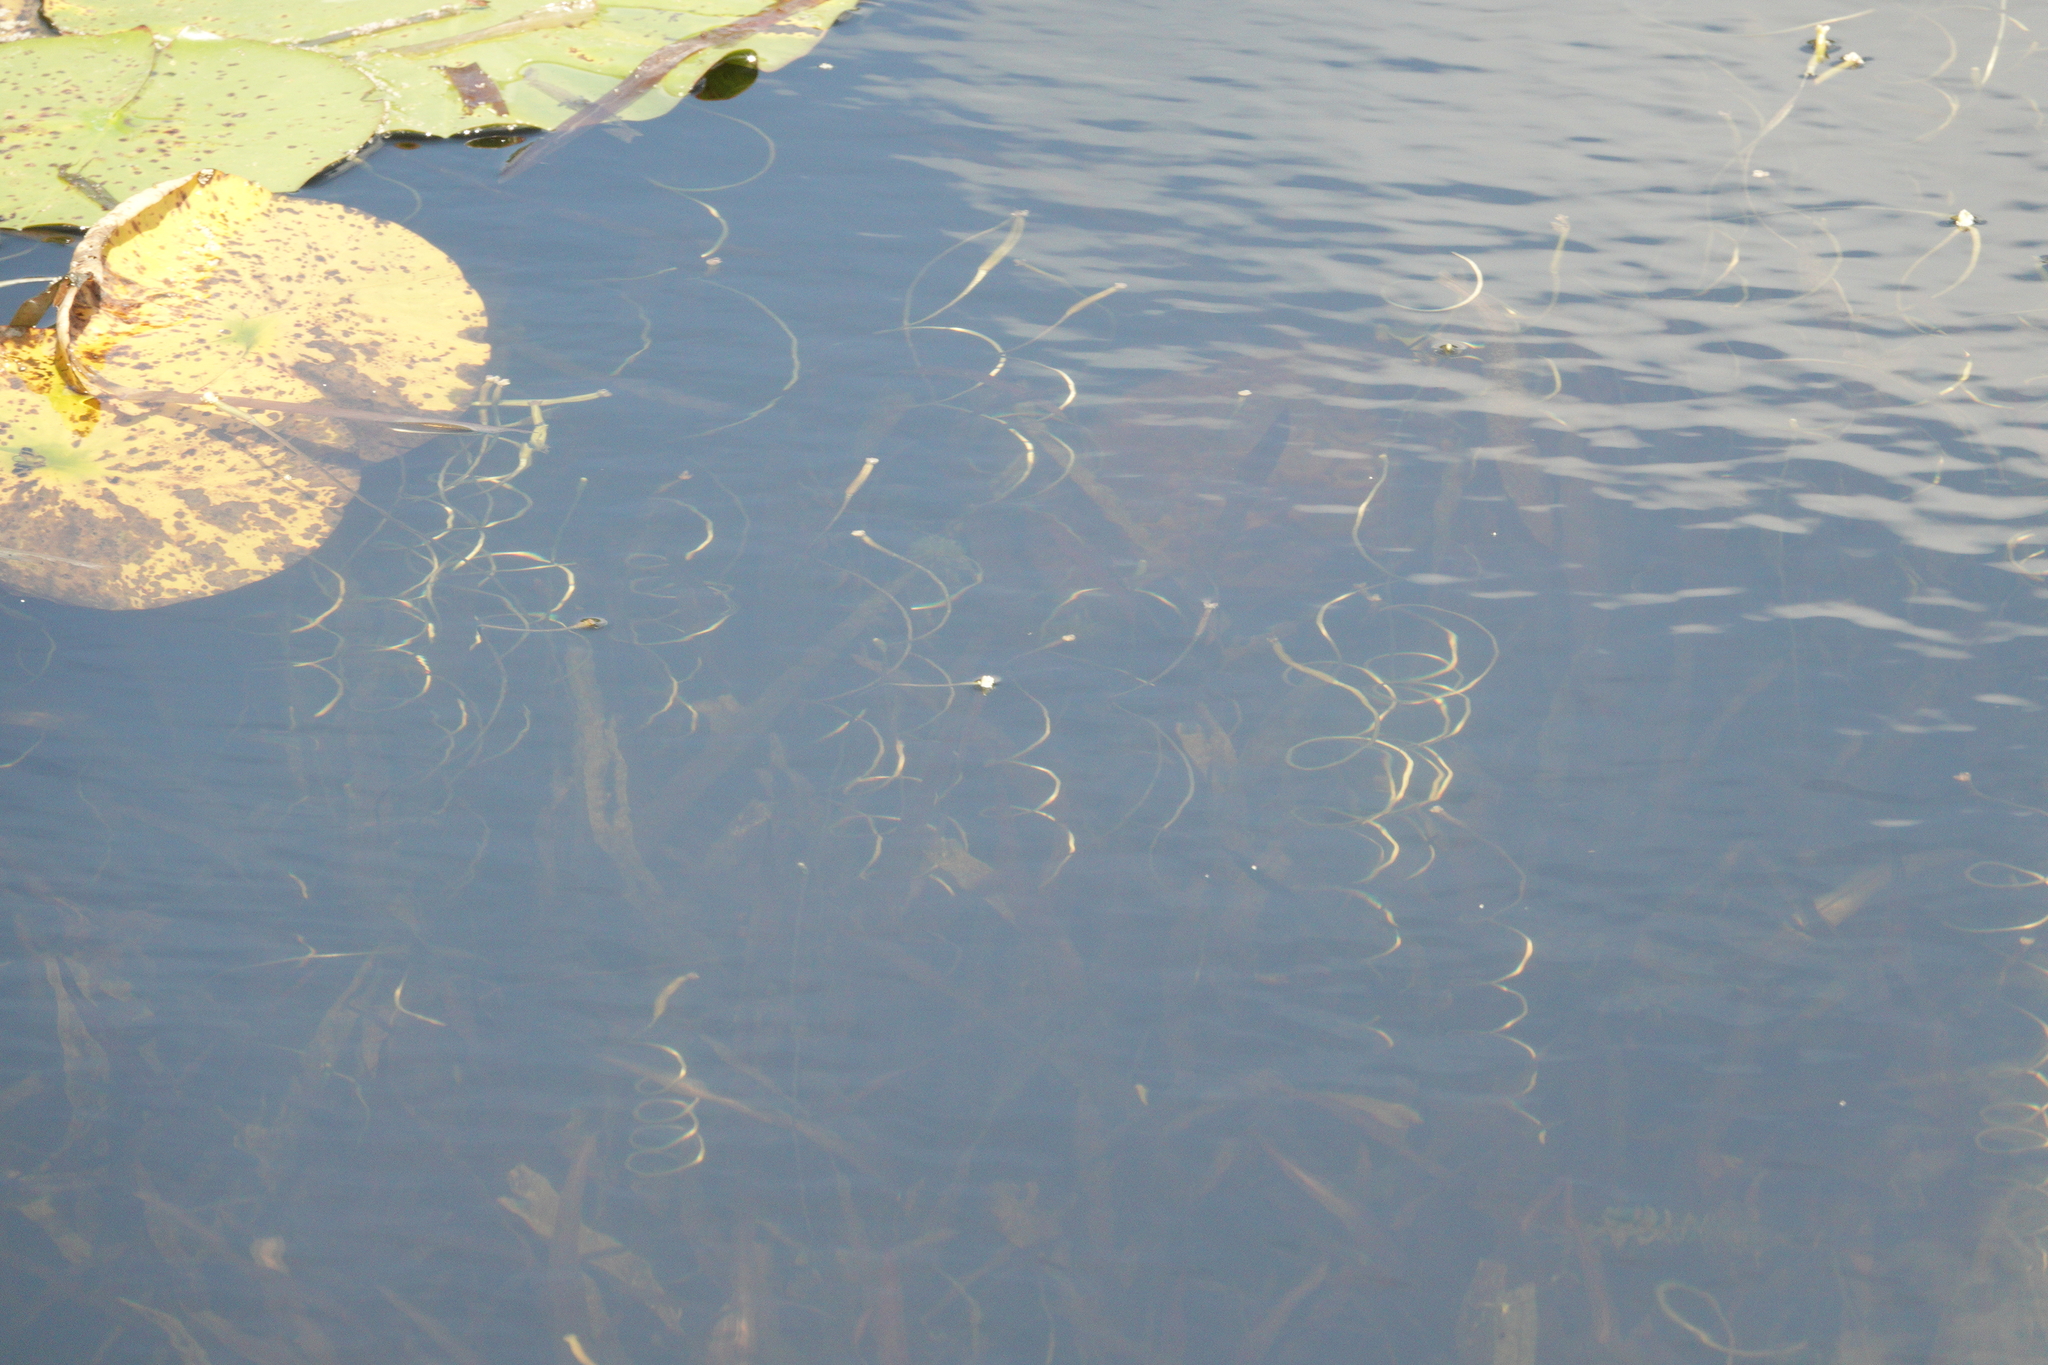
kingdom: Plantae
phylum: Tracheophyta
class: Liliopsida
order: Alismatales
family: Hydrocharitaceae
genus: Vallisneria
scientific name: Vallisneria americana
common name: American eelgrass
